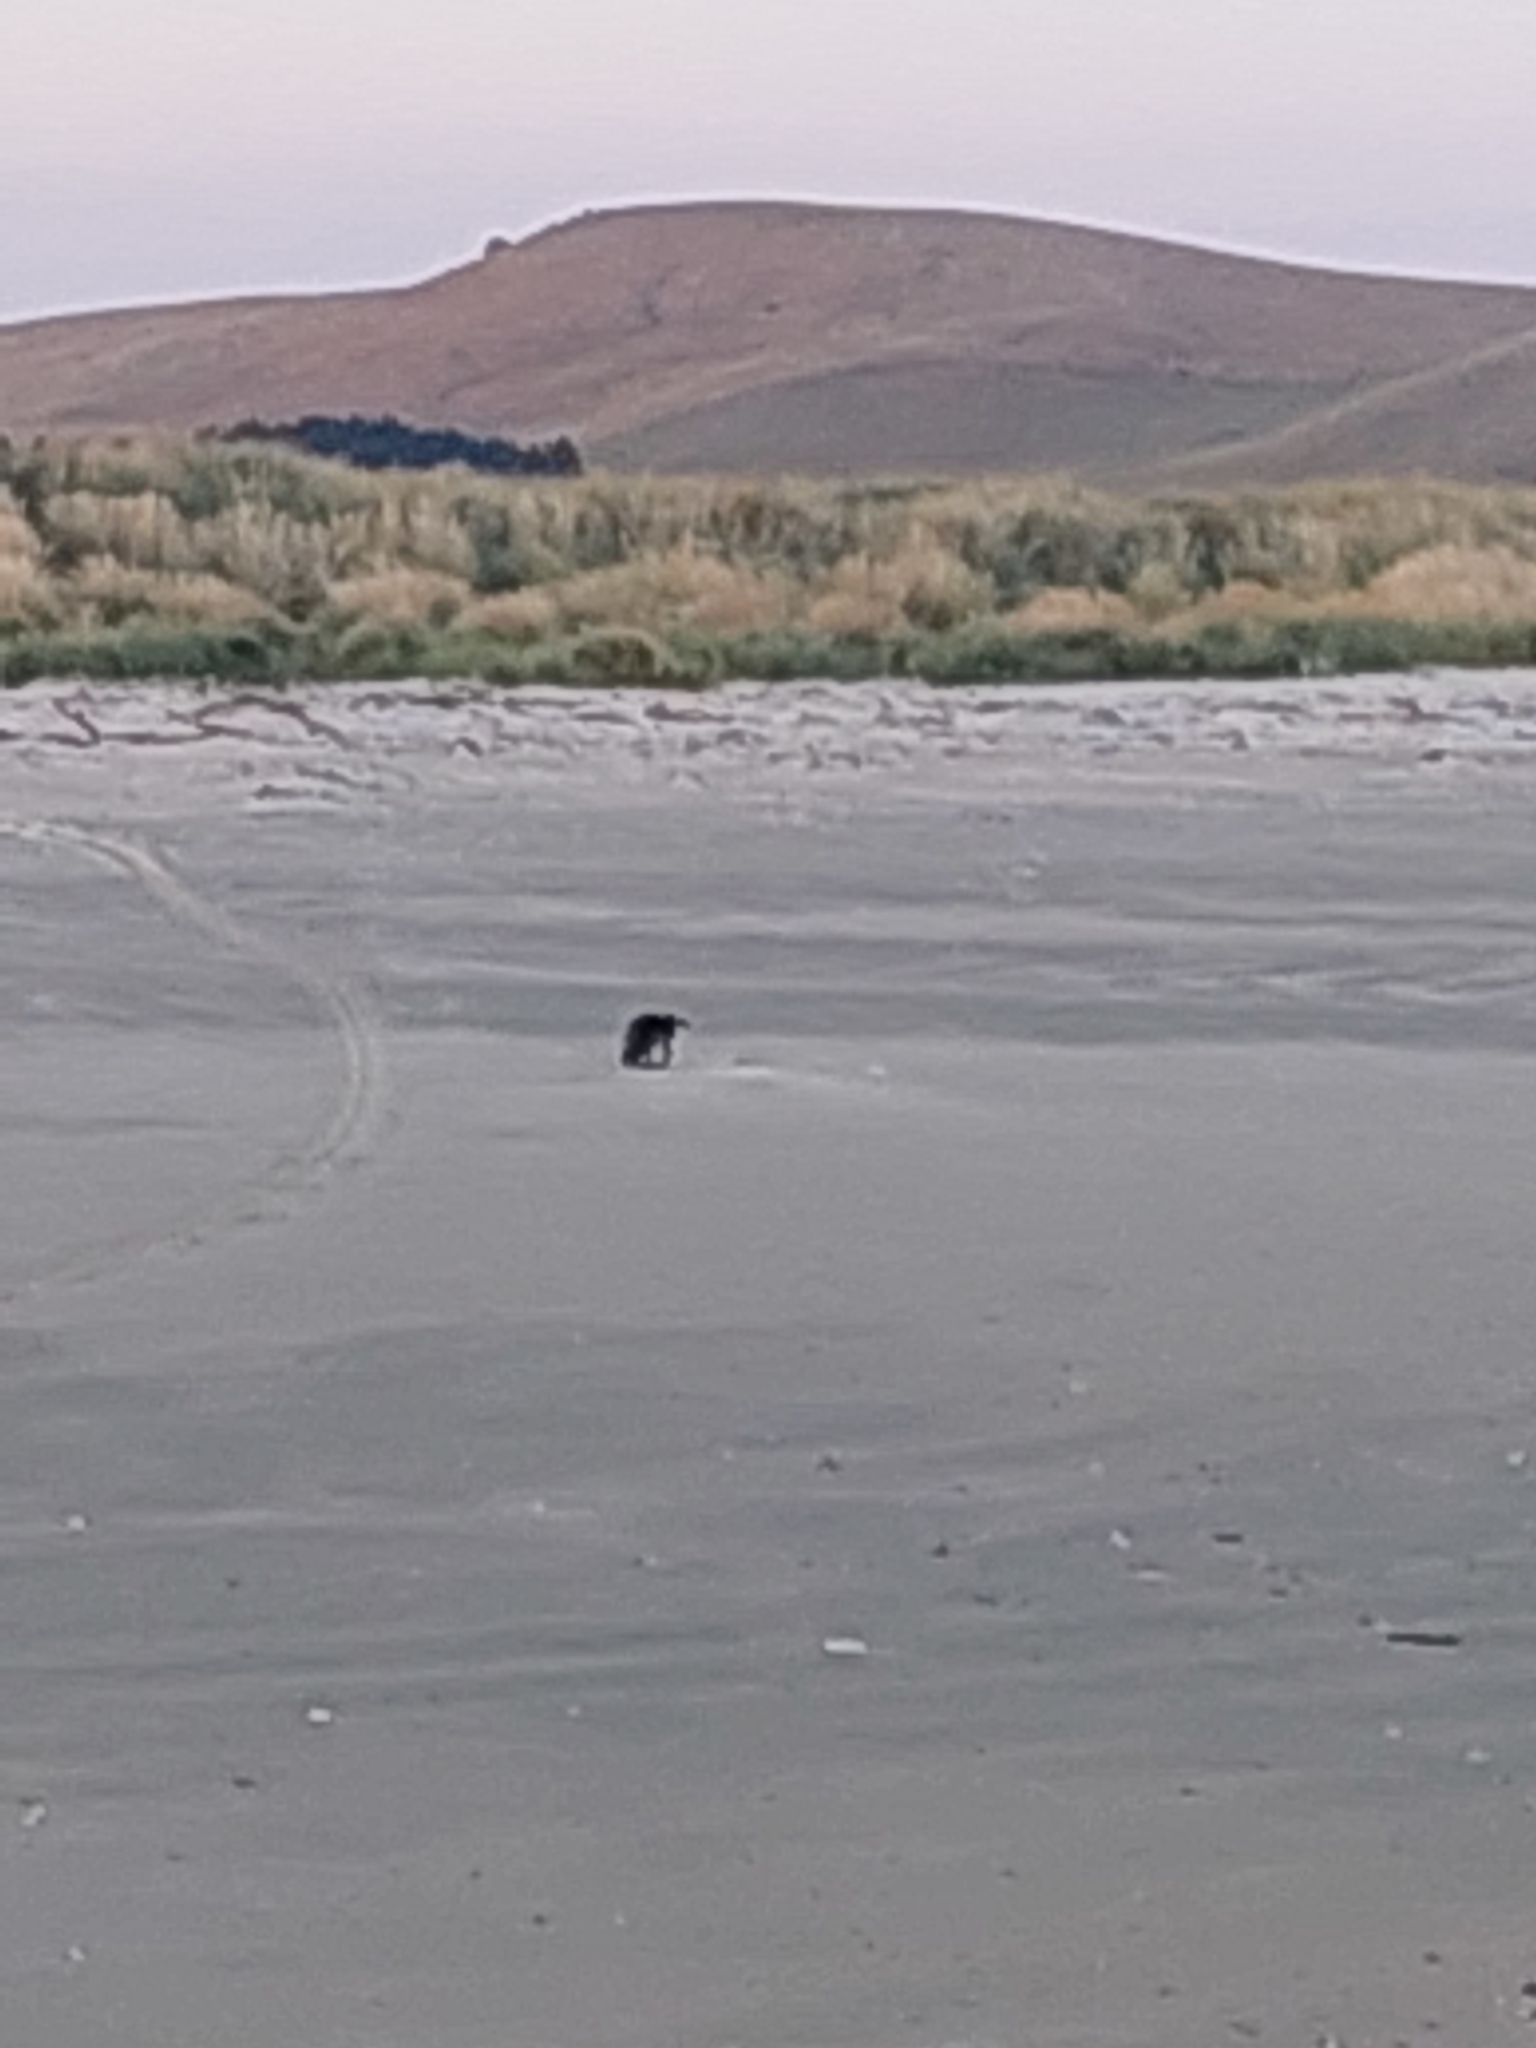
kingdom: Animalia
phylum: Chordata
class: Aves
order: Sphenisciformes
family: Spheniscidae
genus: Eudyptula
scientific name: Eudyptula minor
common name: Little penguin
